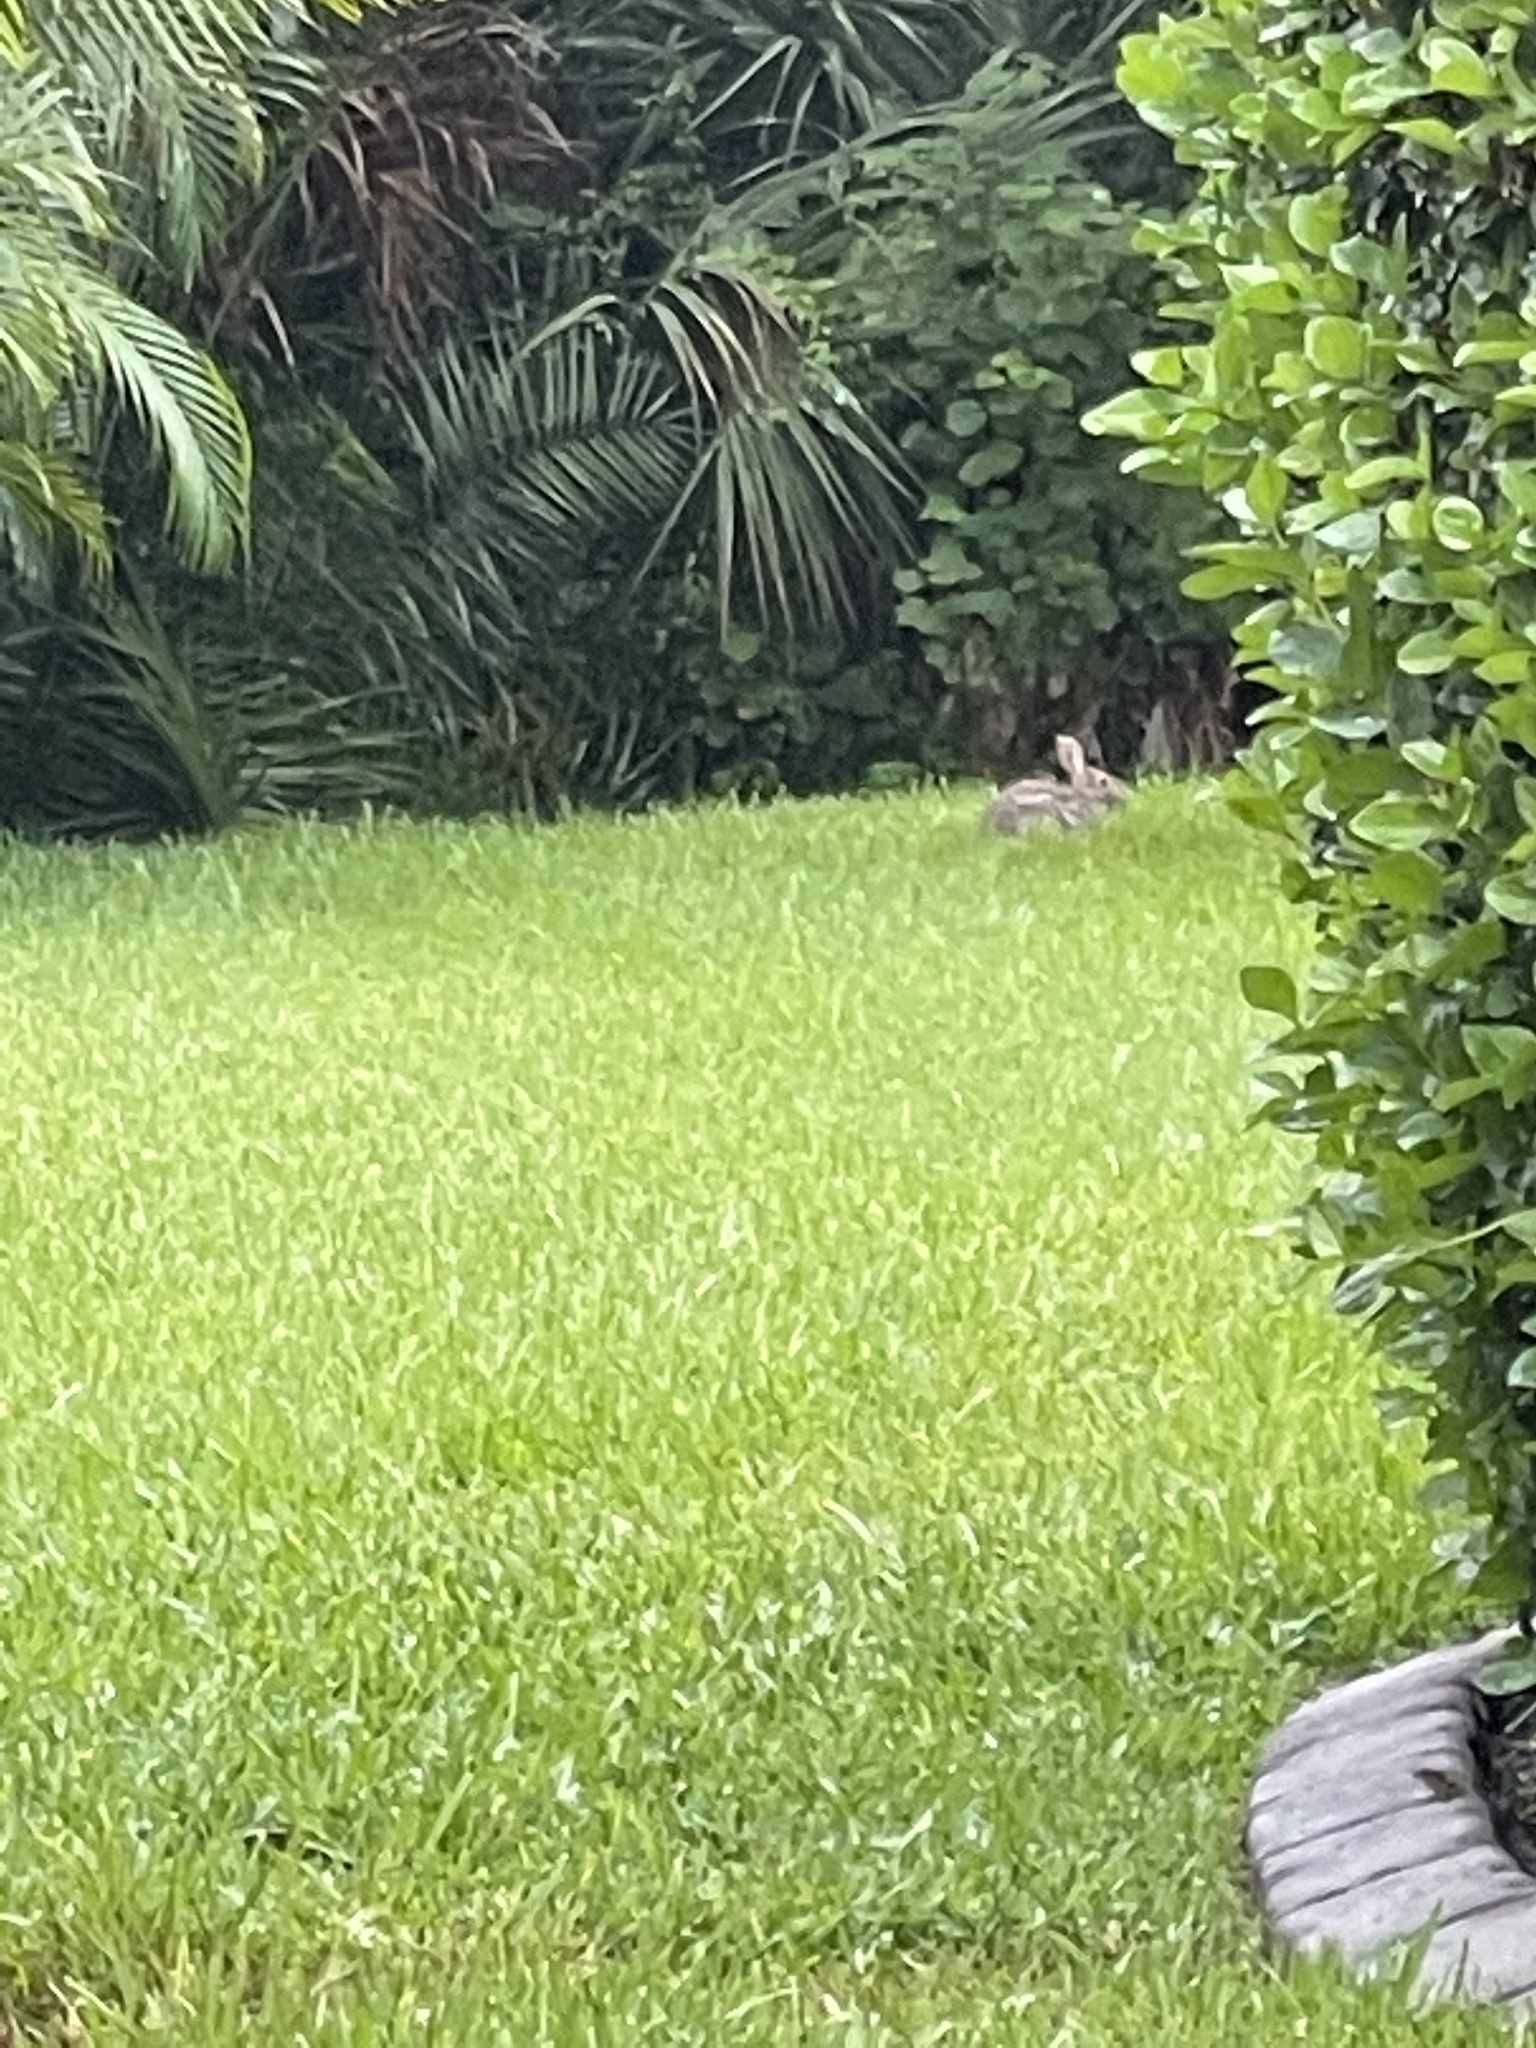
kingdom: Animalia
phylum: Chordata
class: Mammalia
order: Lagomorpha
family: Leporidae
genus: Sylvilagus
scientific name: Sylvilagus floridanus
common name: Eastern cottontail
